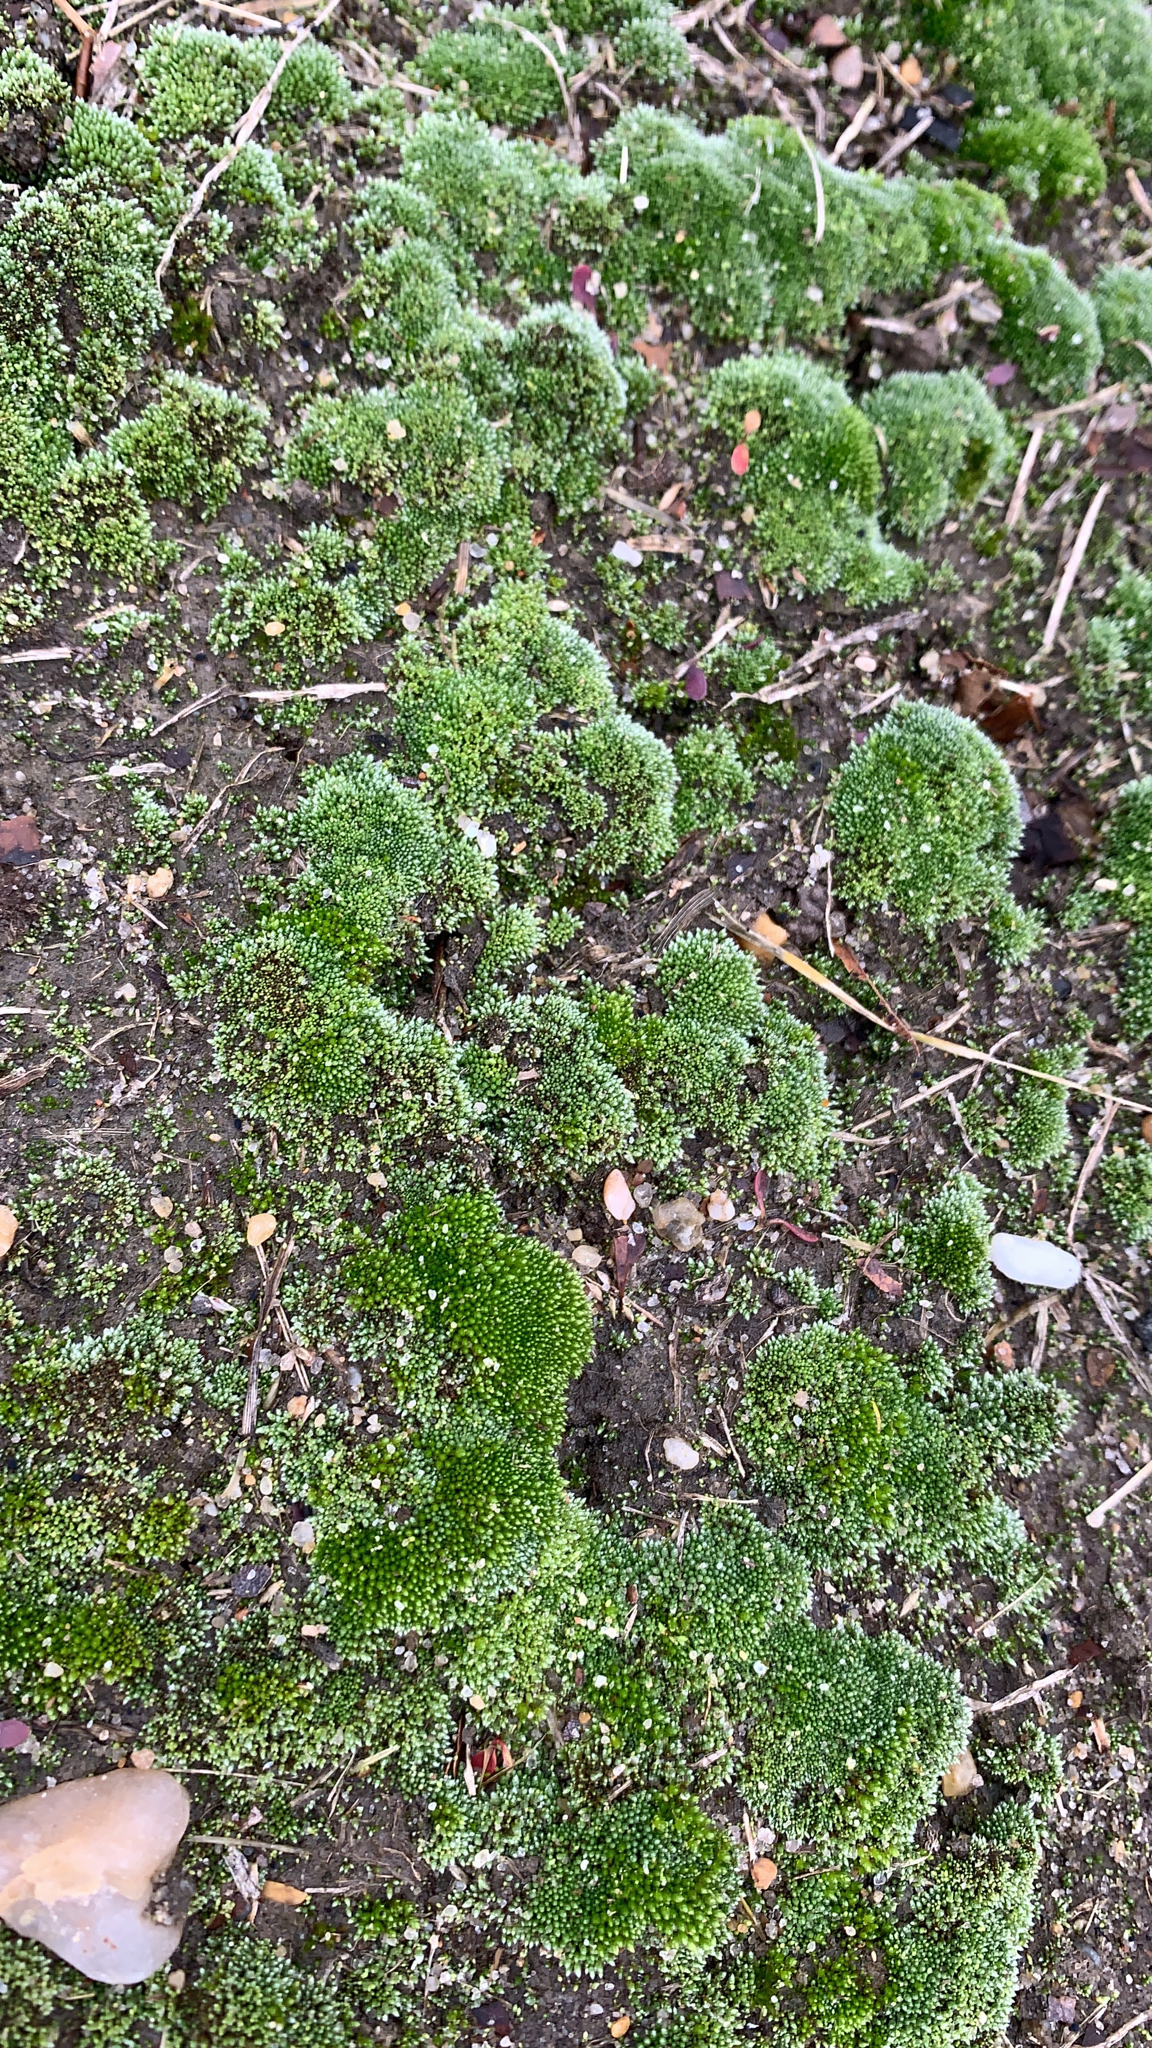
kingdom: Plantae
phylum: Bryophyta
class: Bryopsida
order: Bryales
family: Bryaceae
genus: Bryum
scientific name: Bryum argenteum
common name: Silver-moss
